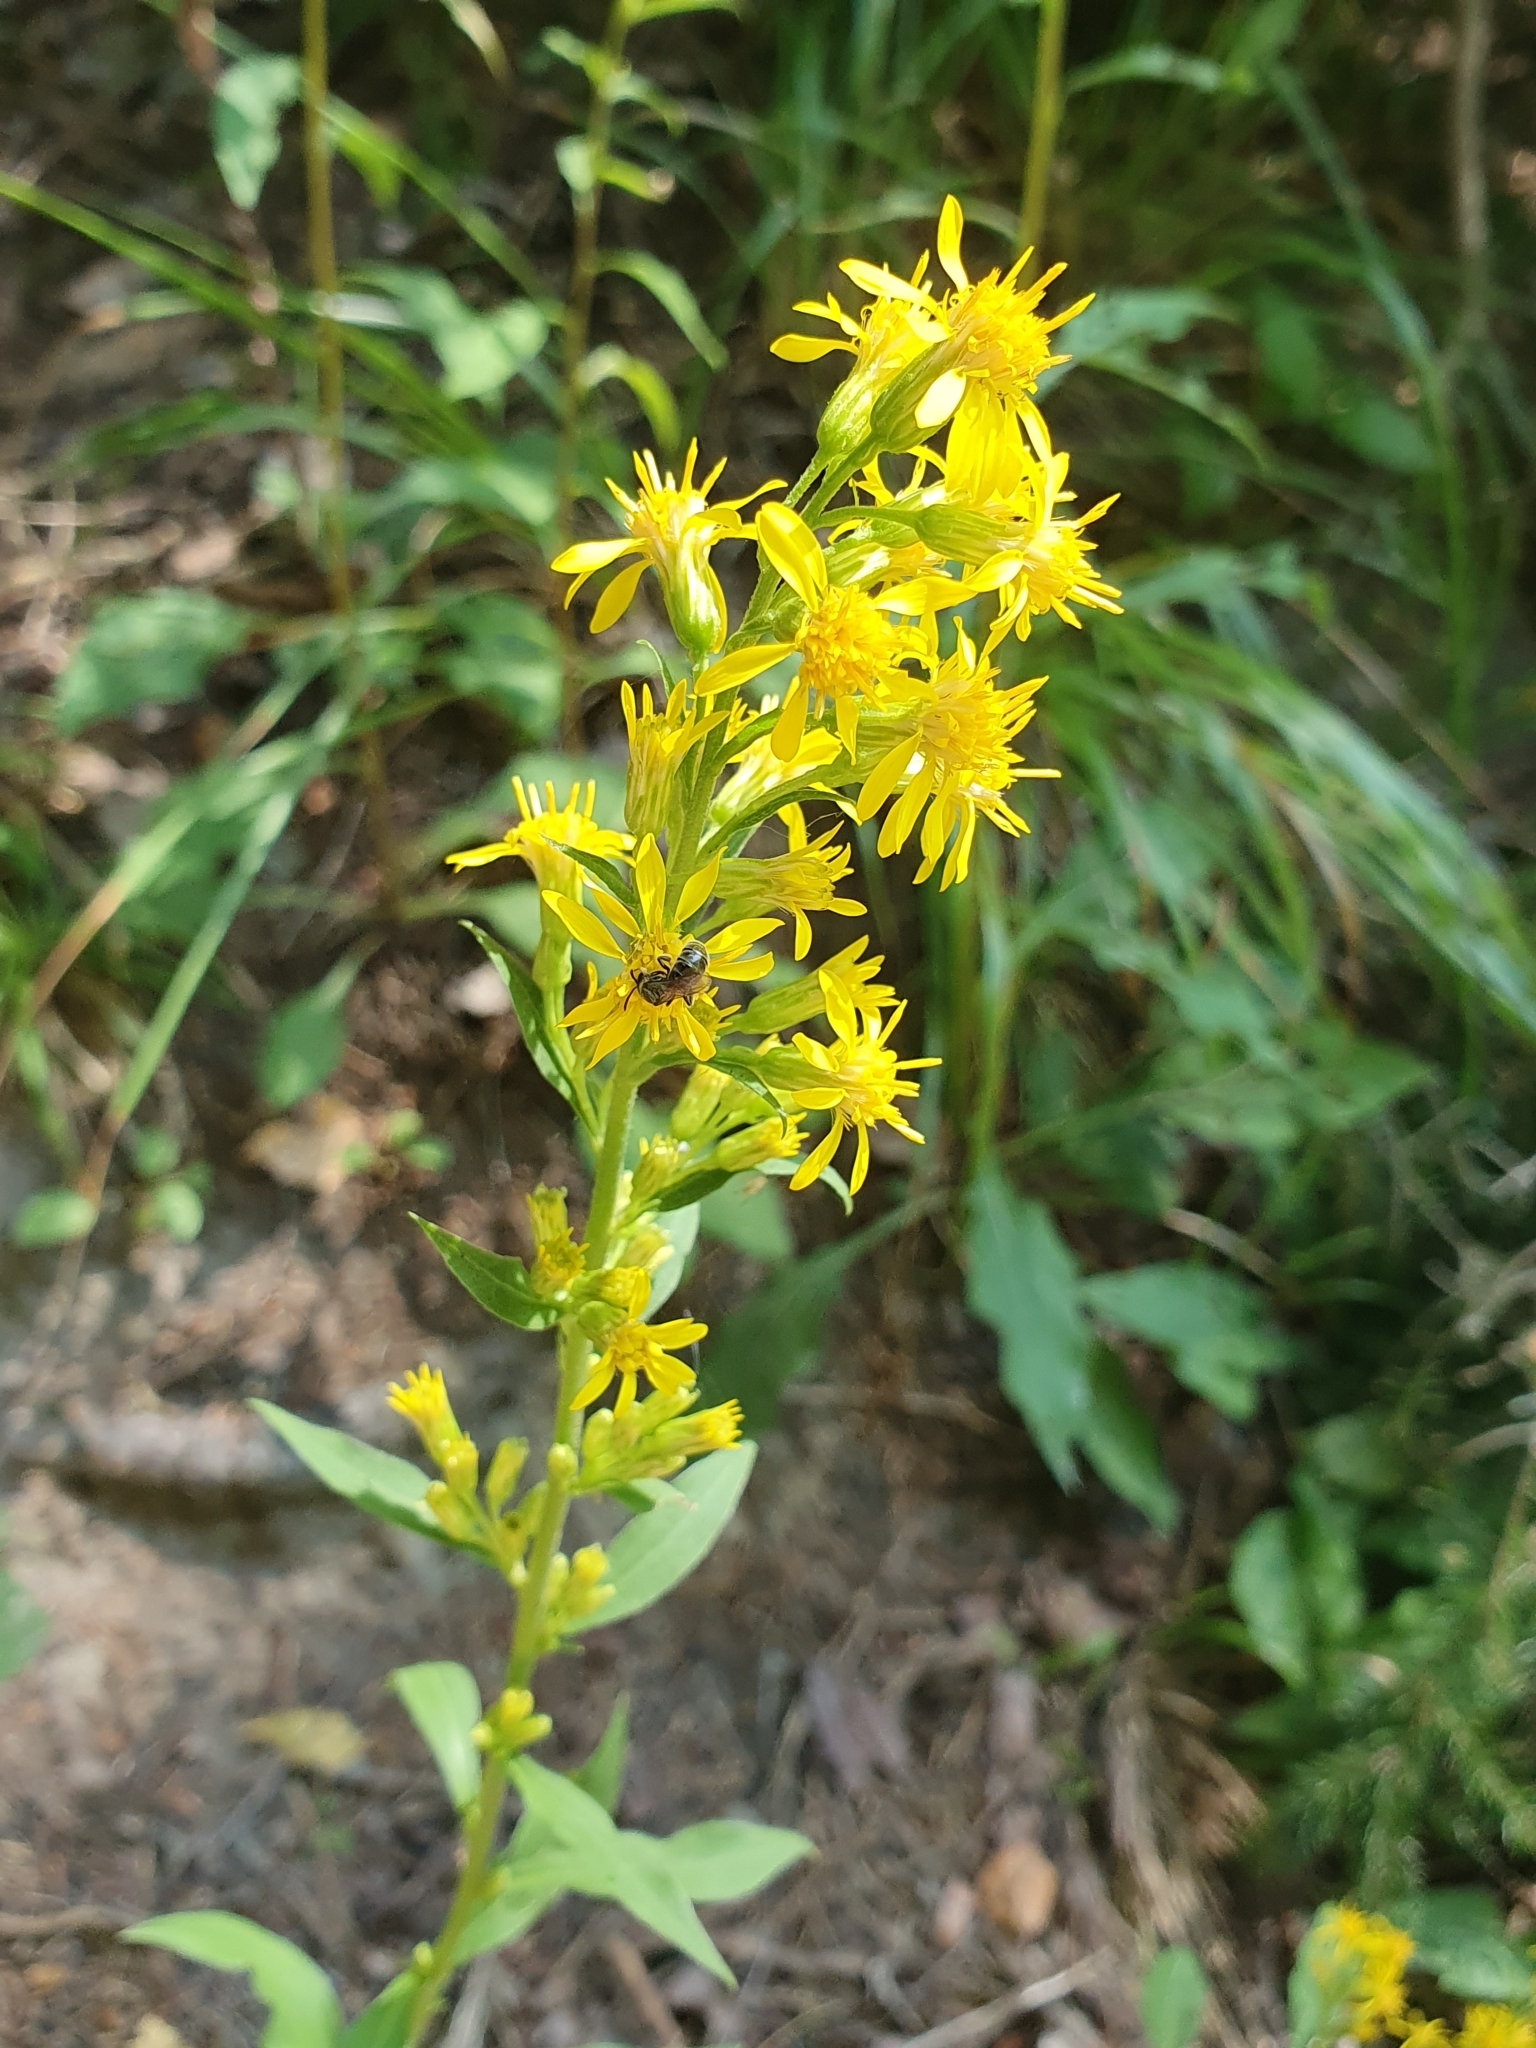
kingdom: Plantae
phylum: Tracheophyta
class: Magnoliopsida
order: Asterales
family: Asteraceae
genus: Solidago
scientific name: Solidago virgaurea
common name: Goldenrod
